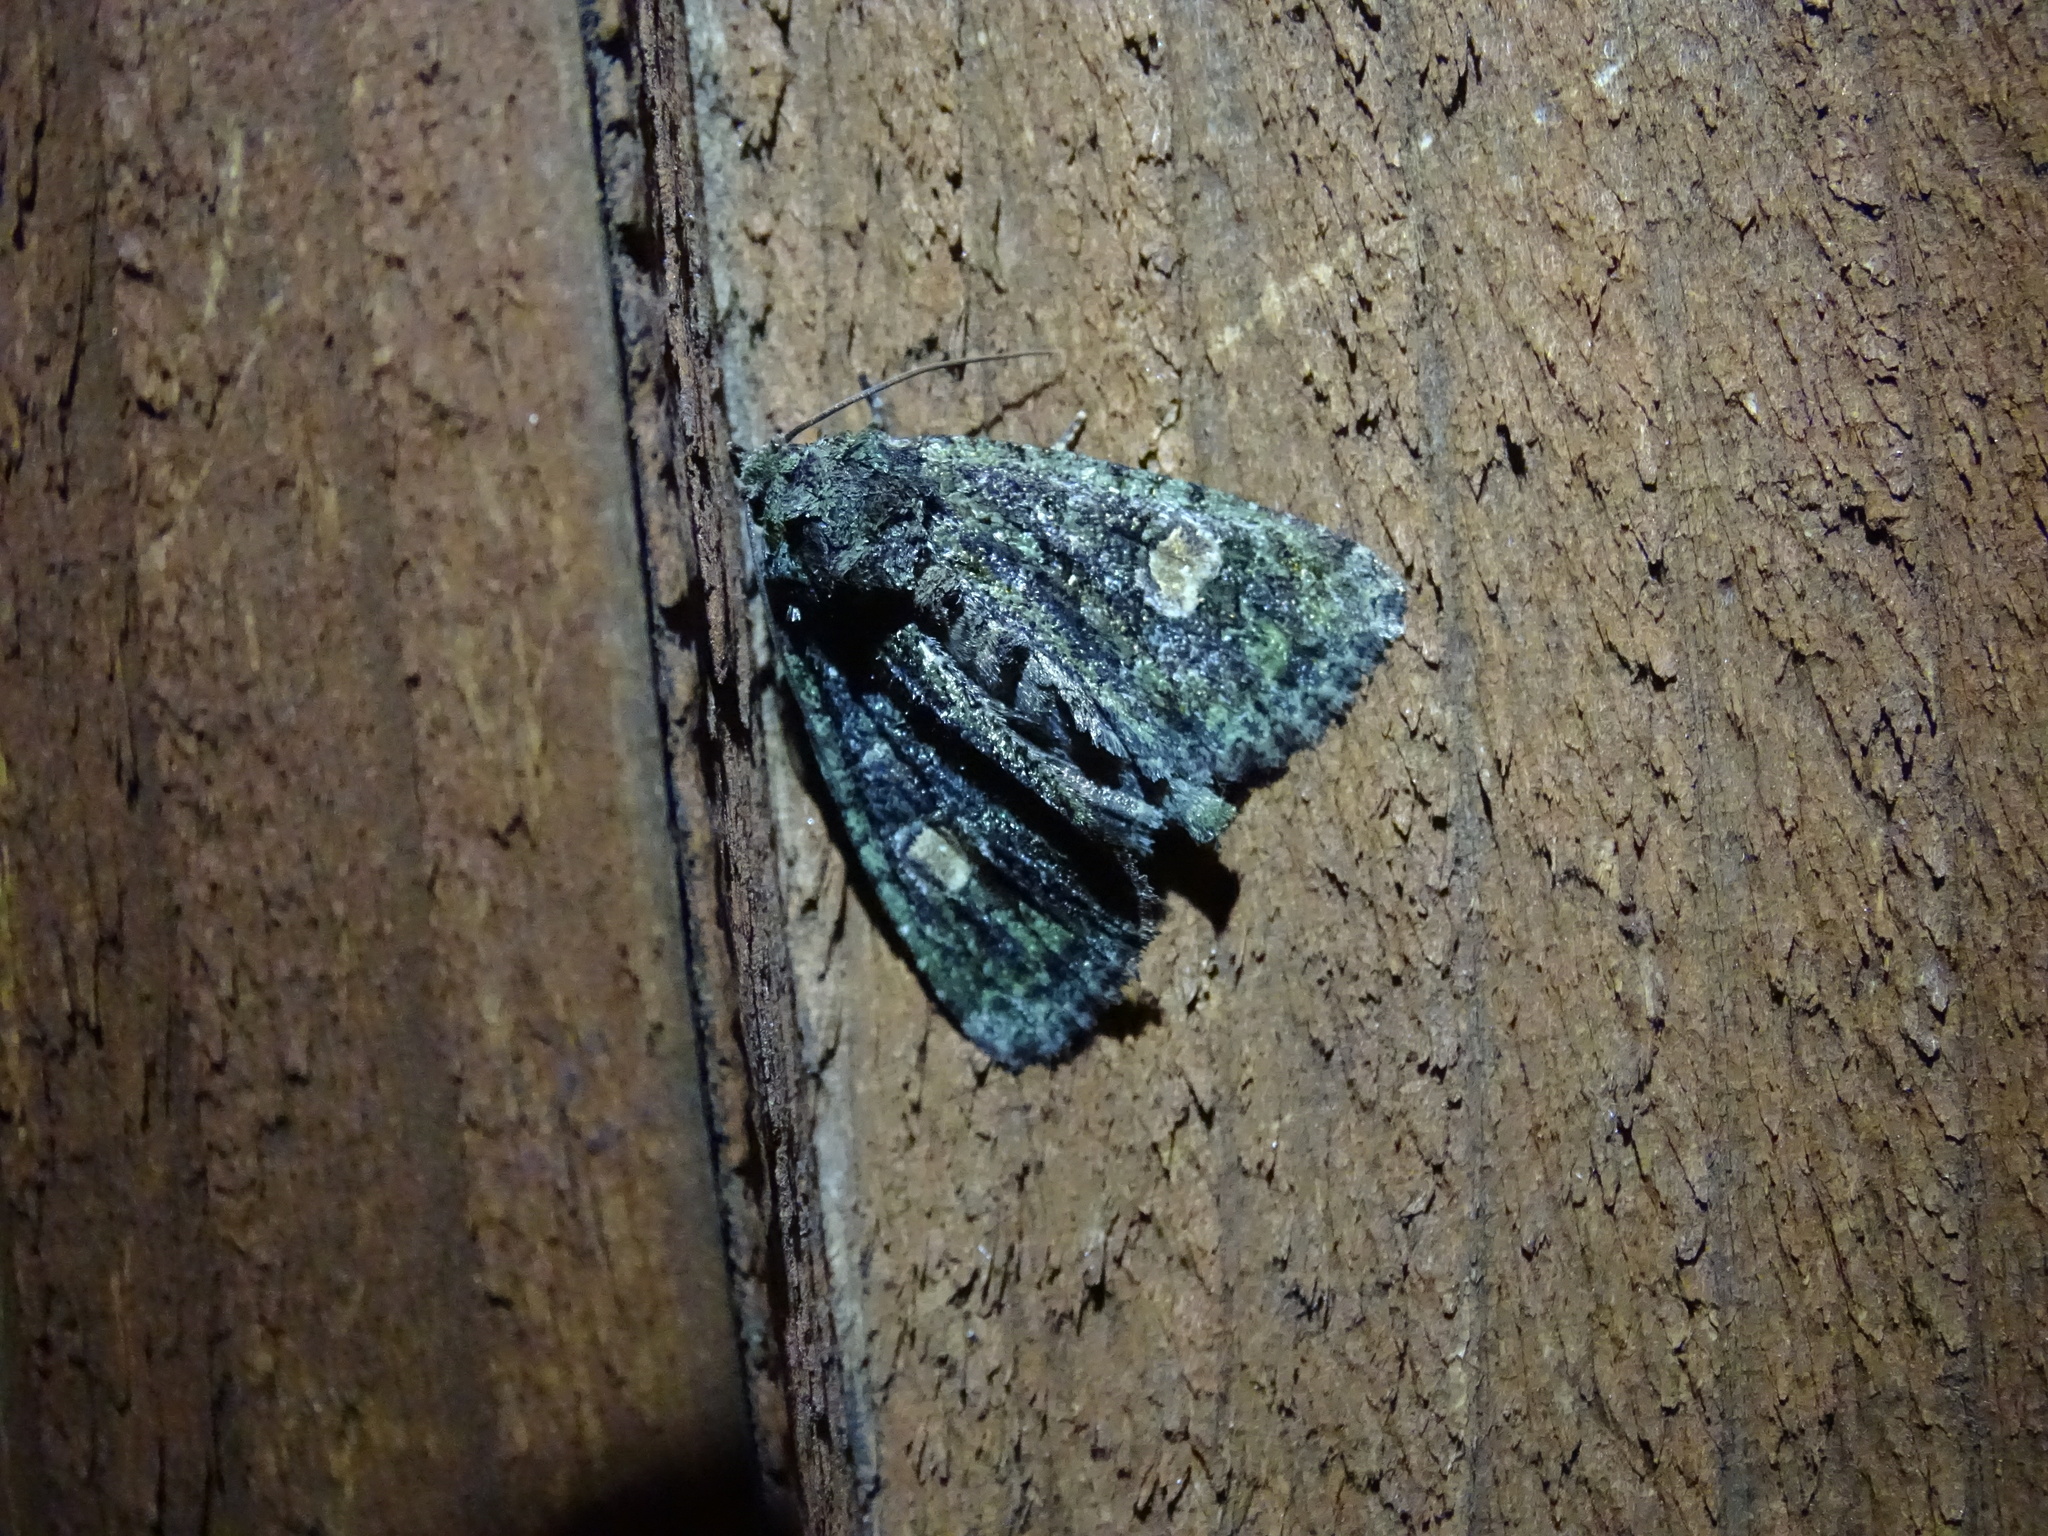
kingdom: Animalia
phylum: Arthropoda
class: Insecta
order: Lepidoptera
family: Noctuidae
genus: Phosphila
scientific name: Phosphila miselioides
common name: Spotted phosphila moth
